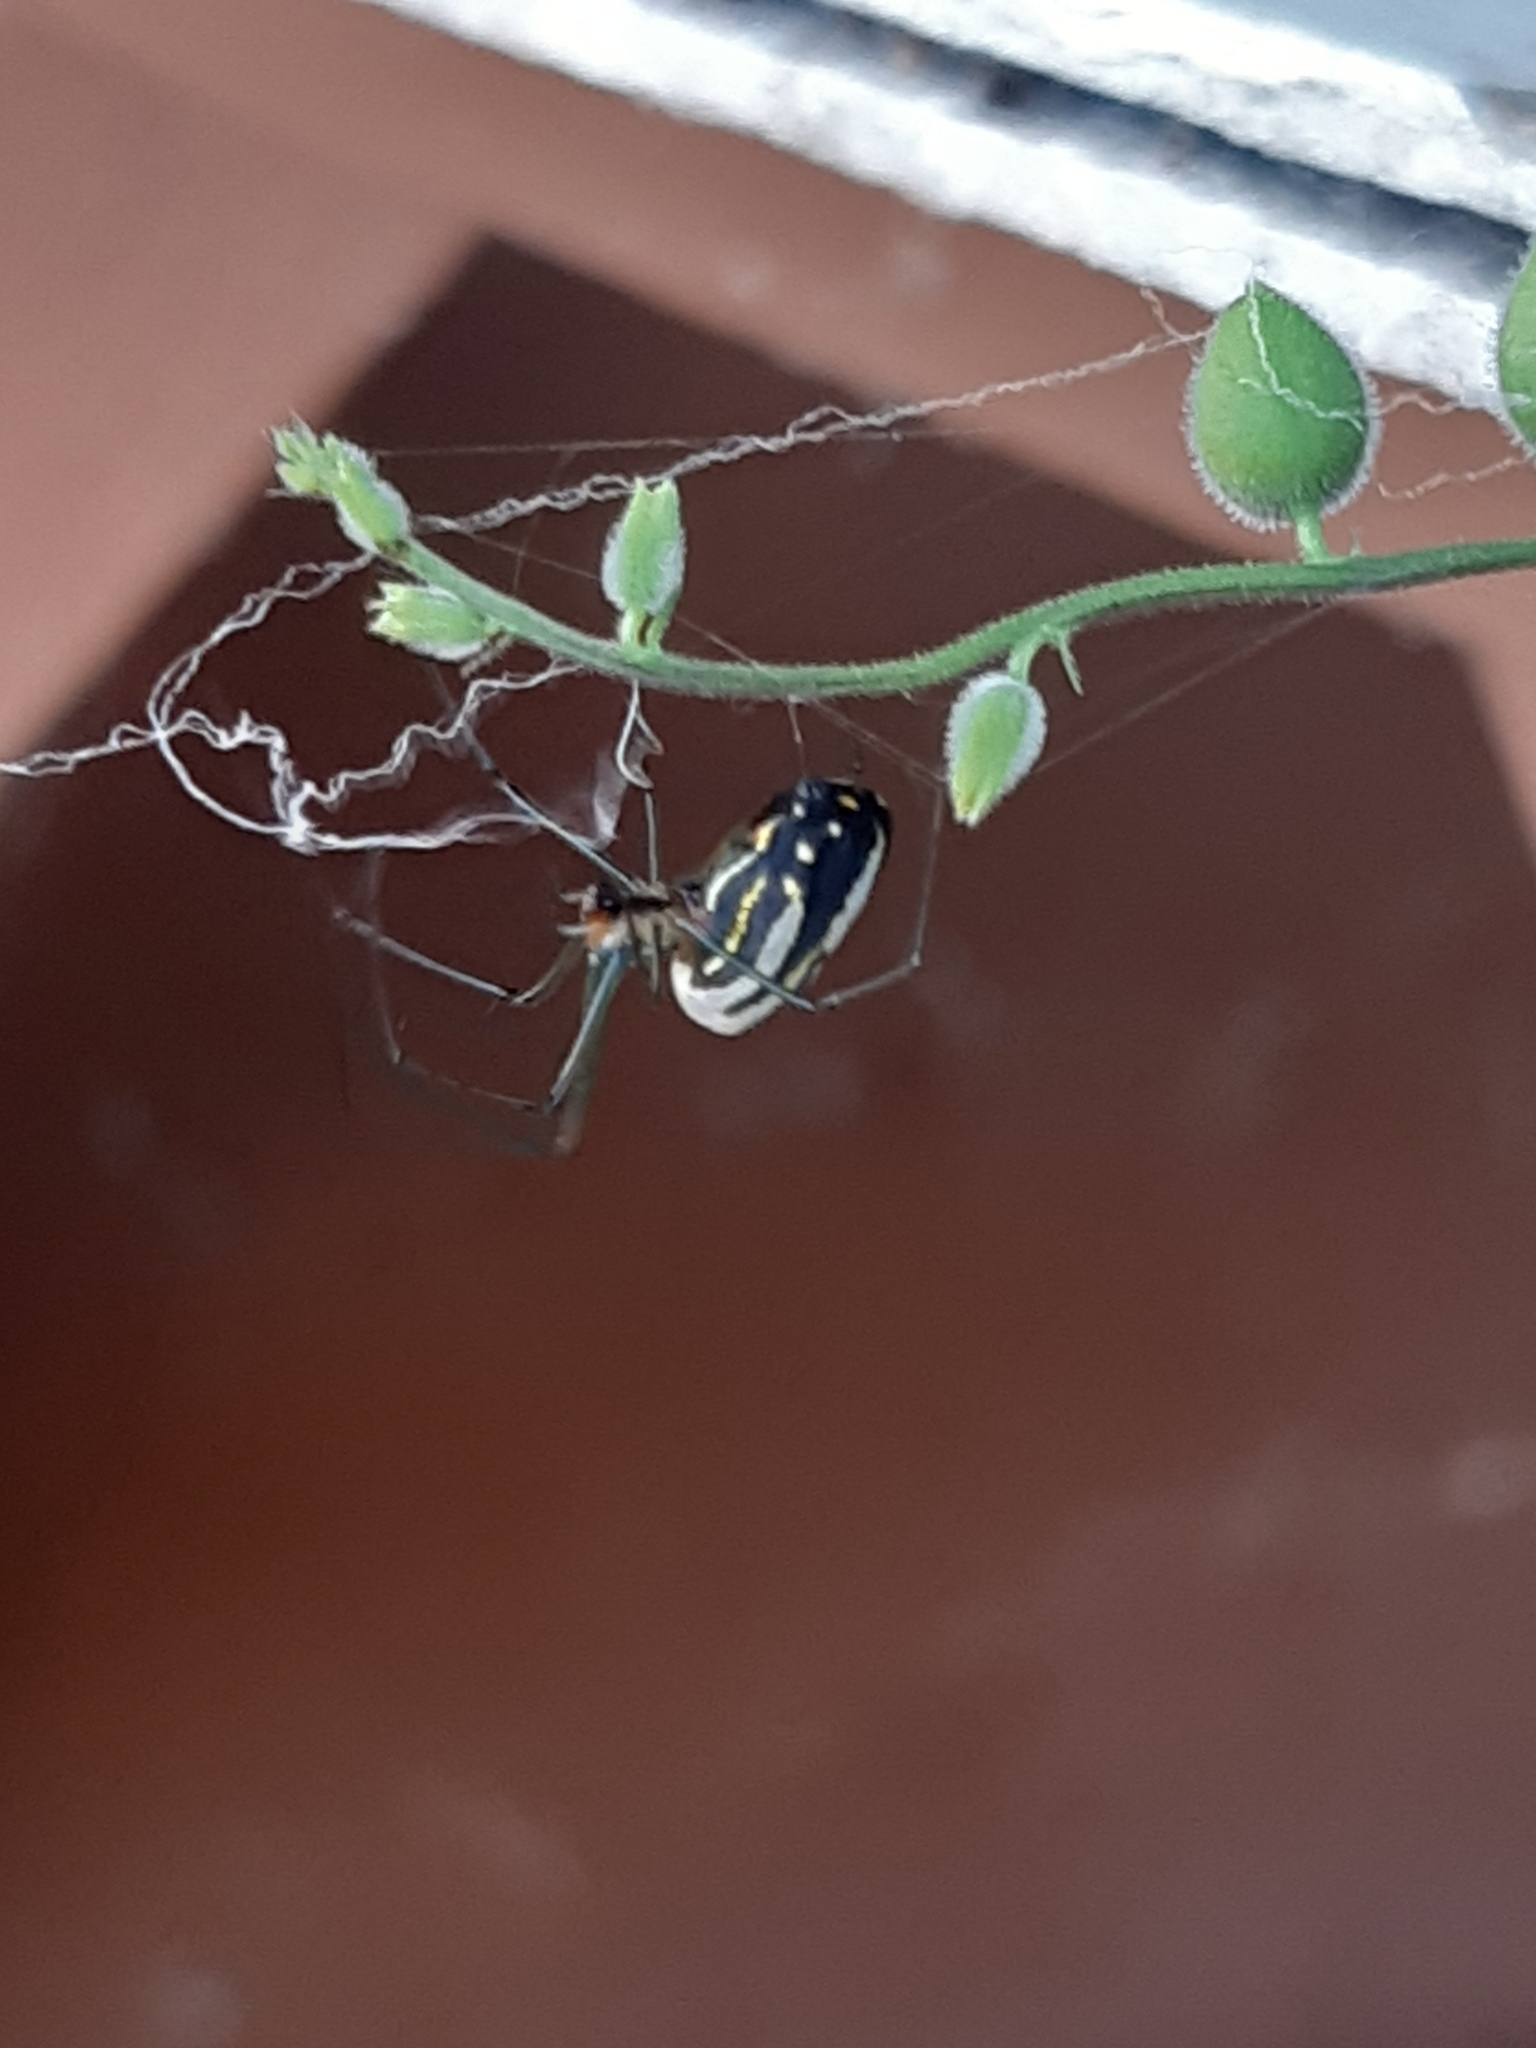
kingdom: Animalia
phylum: Arthropoda
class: Arachnida
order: Araneae
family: Tetragnathidae
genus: Leucauge
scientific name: Leucauge argyra
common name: Longjawed orb weavers
